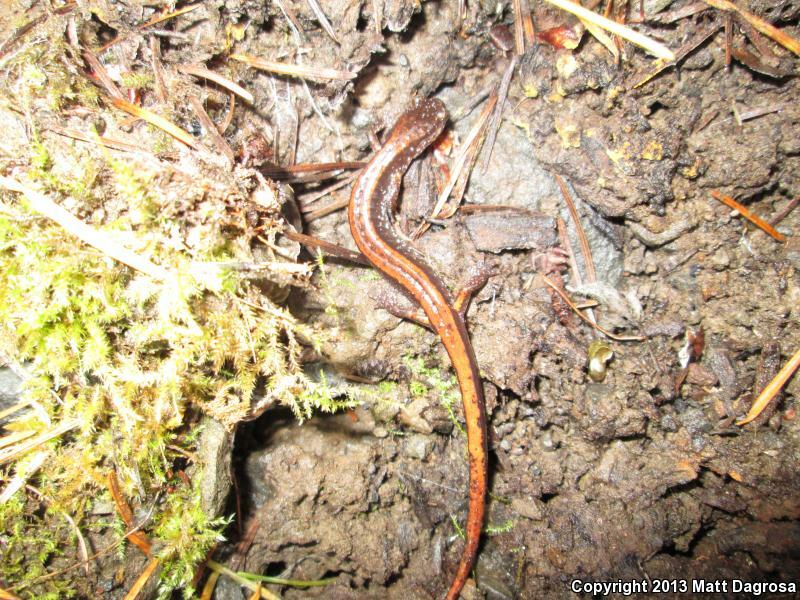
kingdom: Animalia
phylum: Chordata
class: Amphibia
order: Caudata
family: Plethodontidae
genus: Plethodon
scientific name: Plethodon vehiculum
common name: Western red-backed salamander
